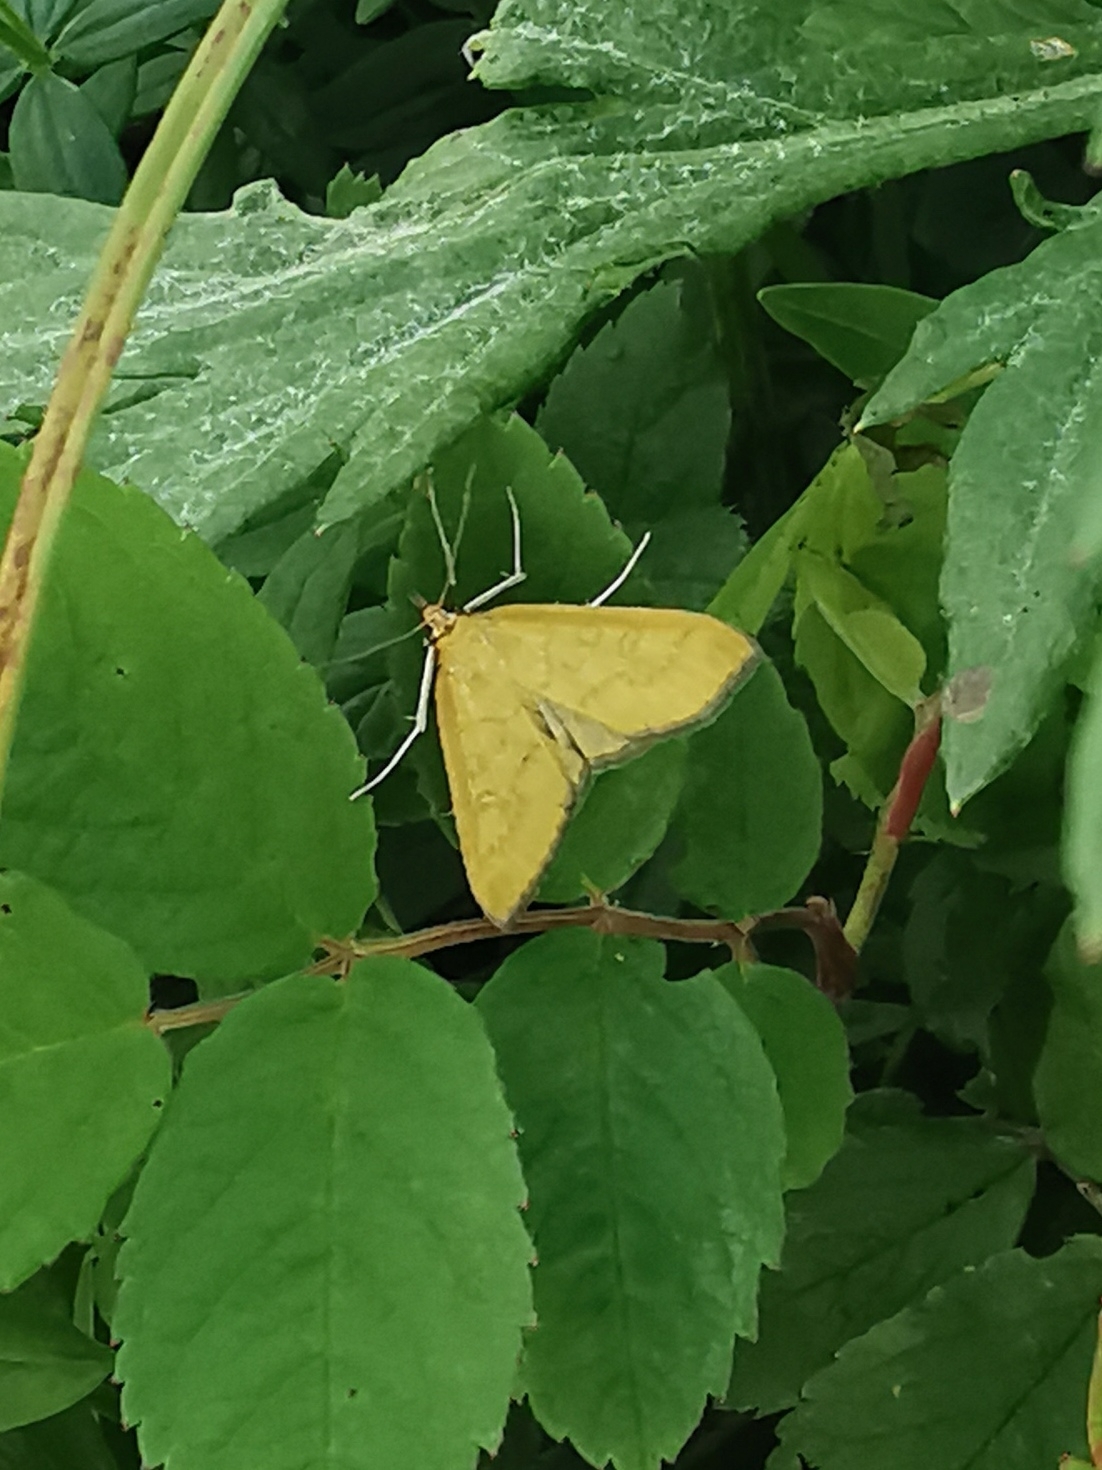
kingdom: Animalia
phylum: Arthropoda
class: Insecta
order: Lepidoptera
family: Crambidae
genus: Mecyna
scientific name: Mecyna flavalis
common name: Yellow pearl
